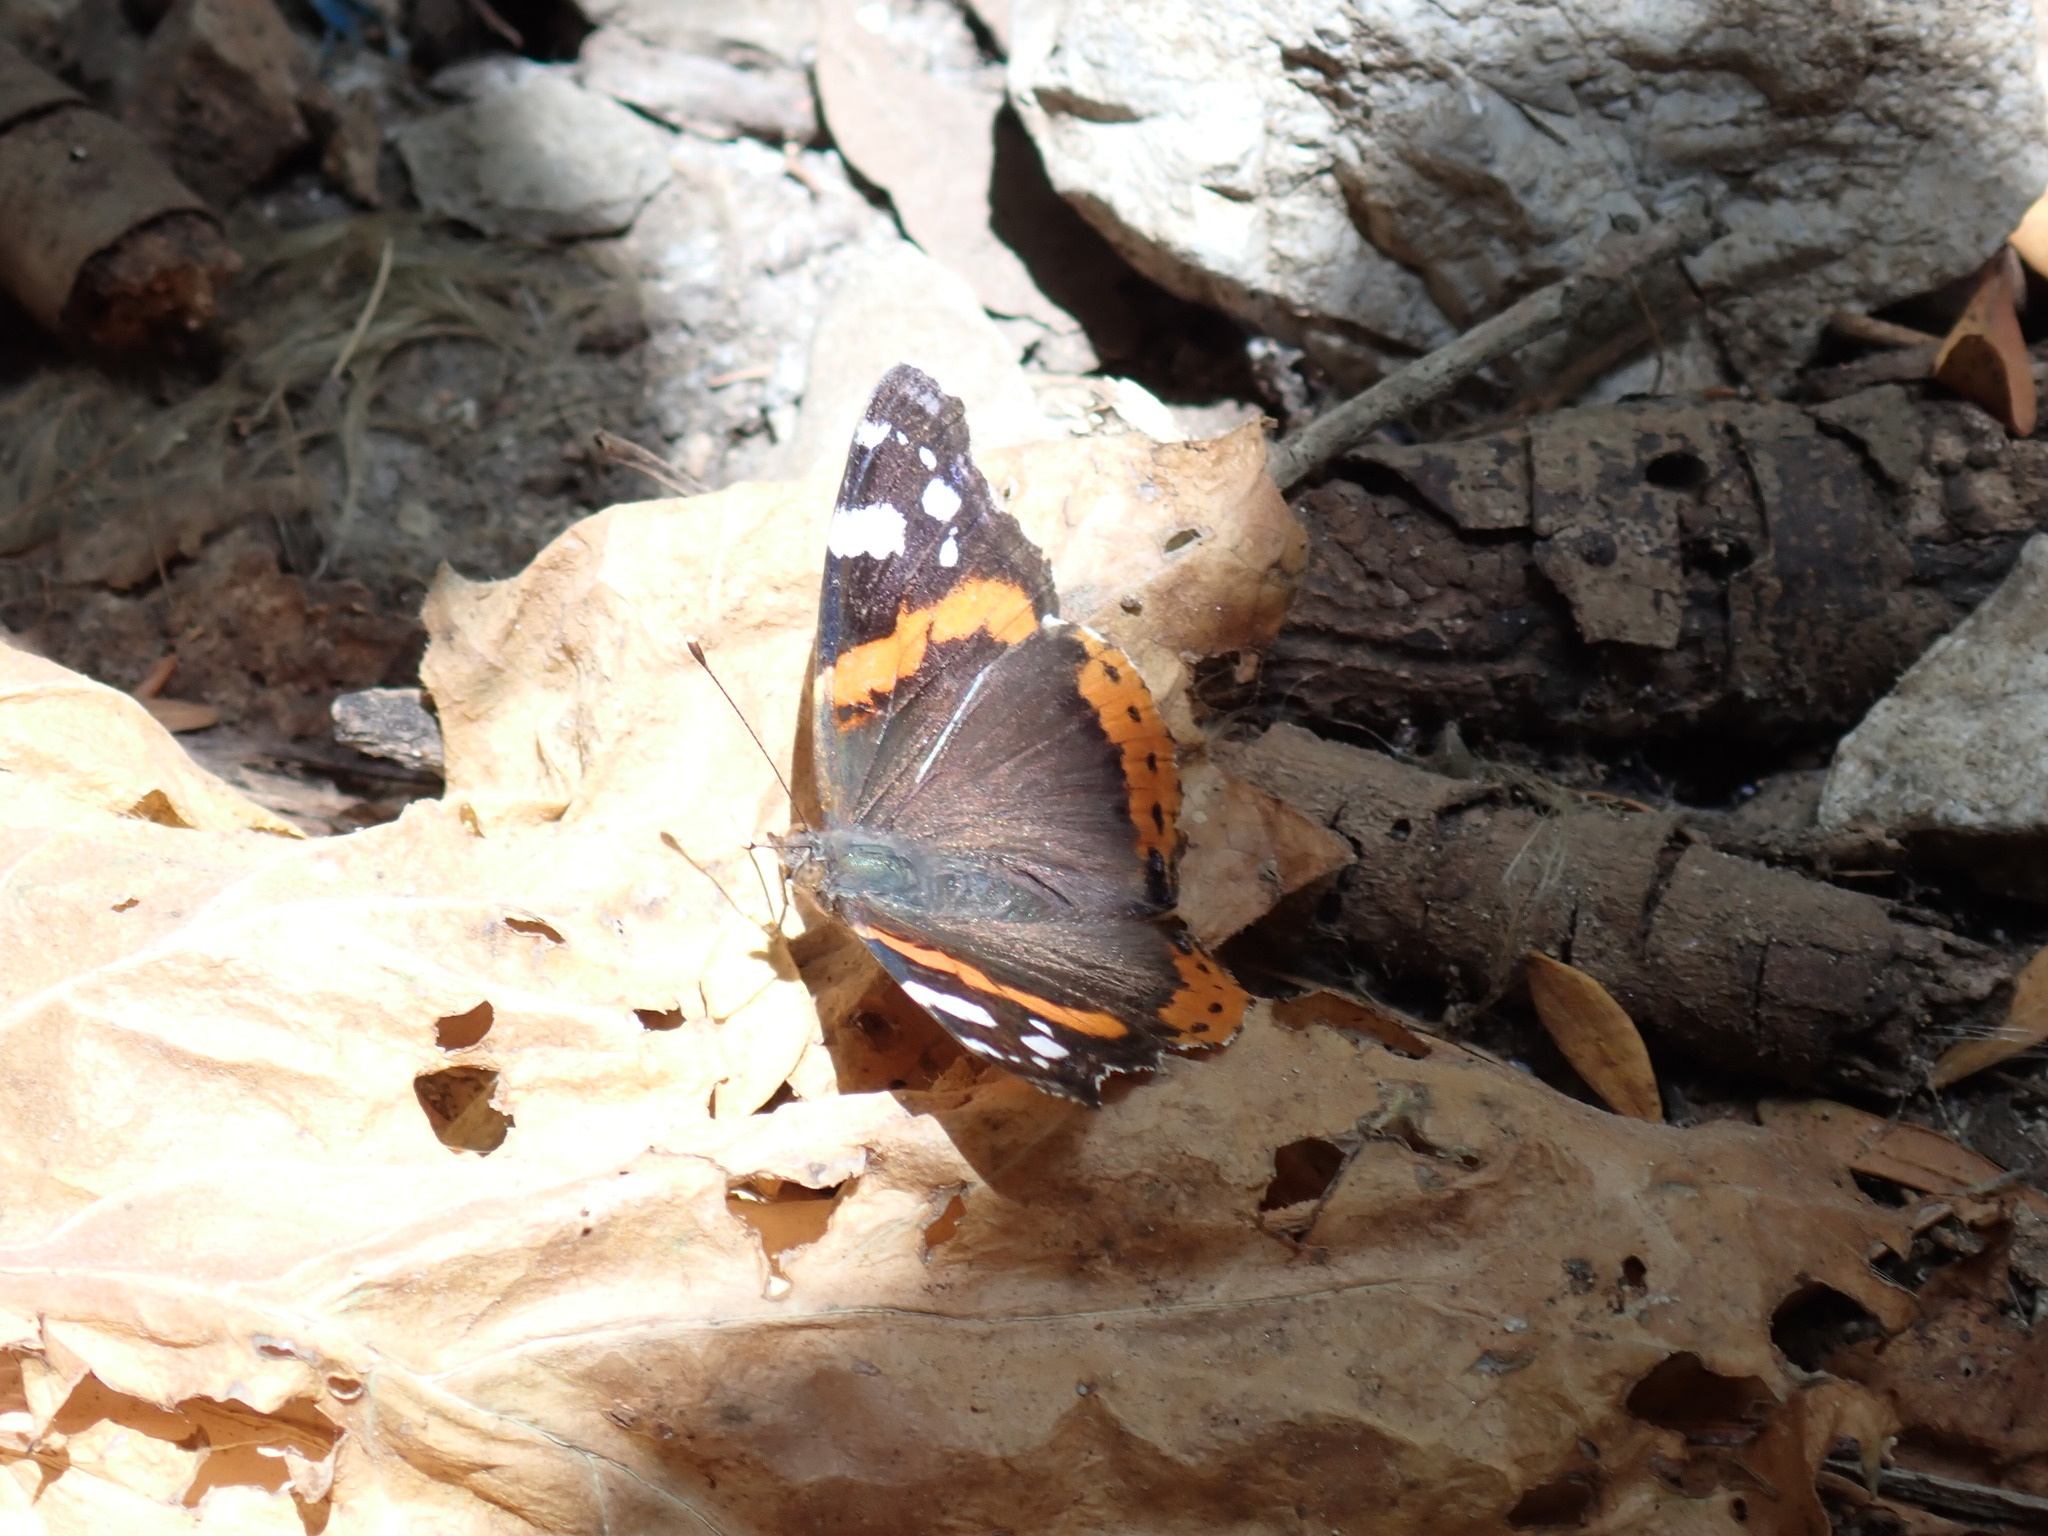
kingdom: Animalia
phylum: Arthropoda
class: Insecta
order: Lepidoptera
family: Nymphalidae
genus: Vanessa
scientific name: Vanessa atalanta
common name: Red admiral
